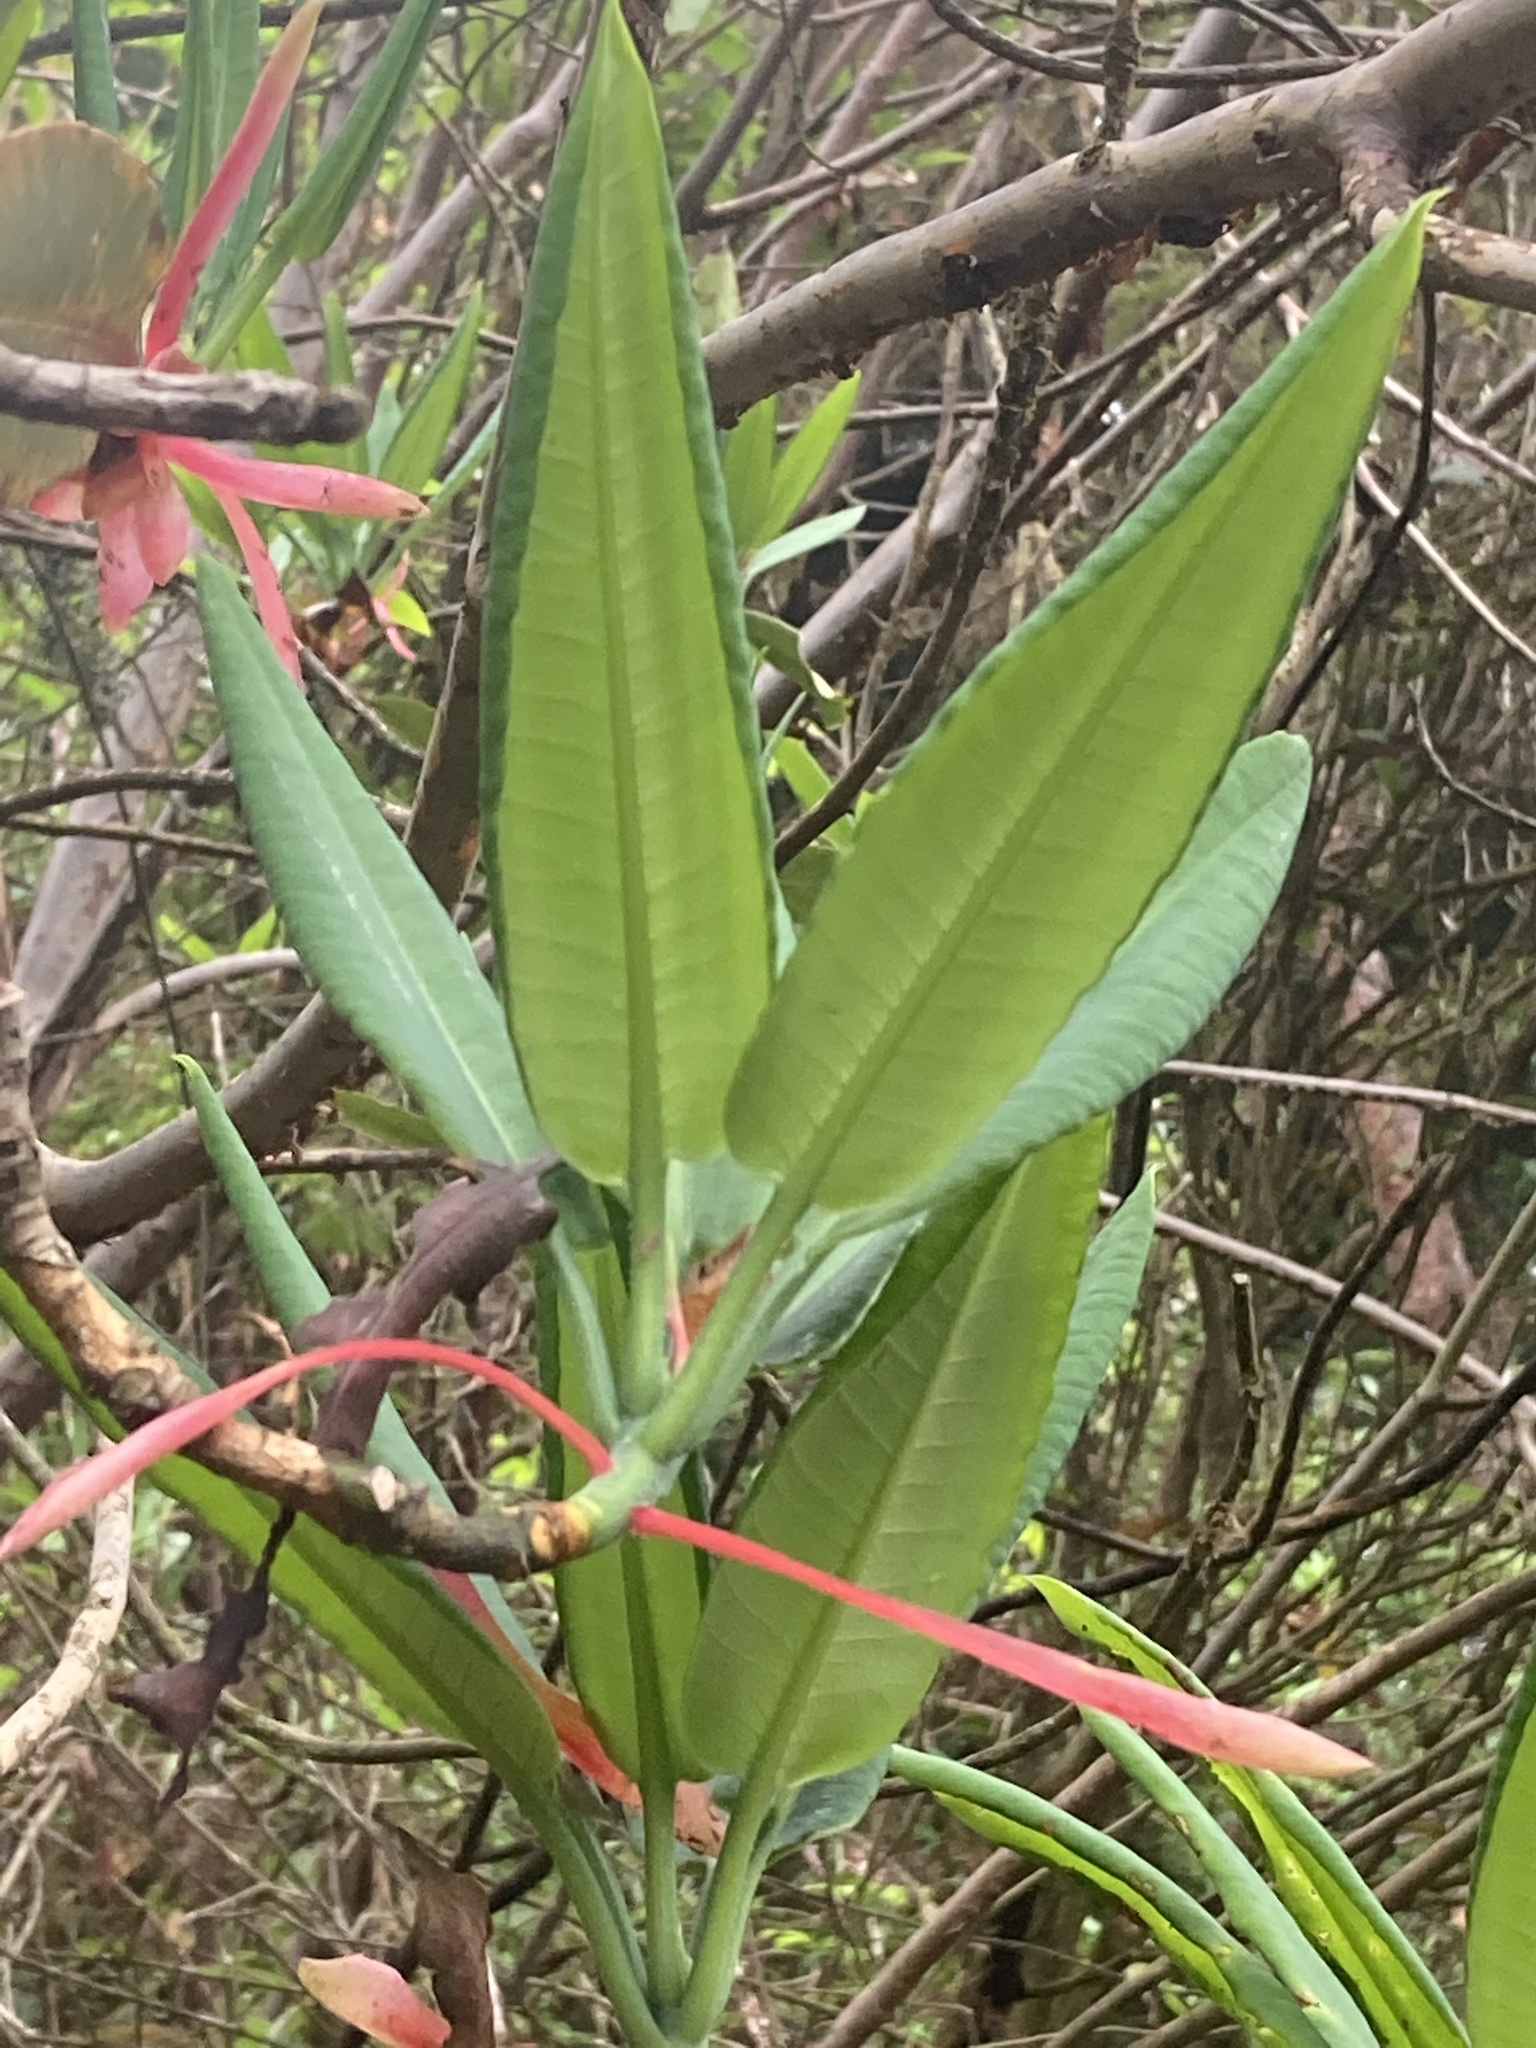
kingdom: Plantae
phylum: Tracheophyta
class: Magnoliopsida
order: Ericales
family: Ericaceae
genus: Rhododendron
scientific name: Rhododendron griffithianum
